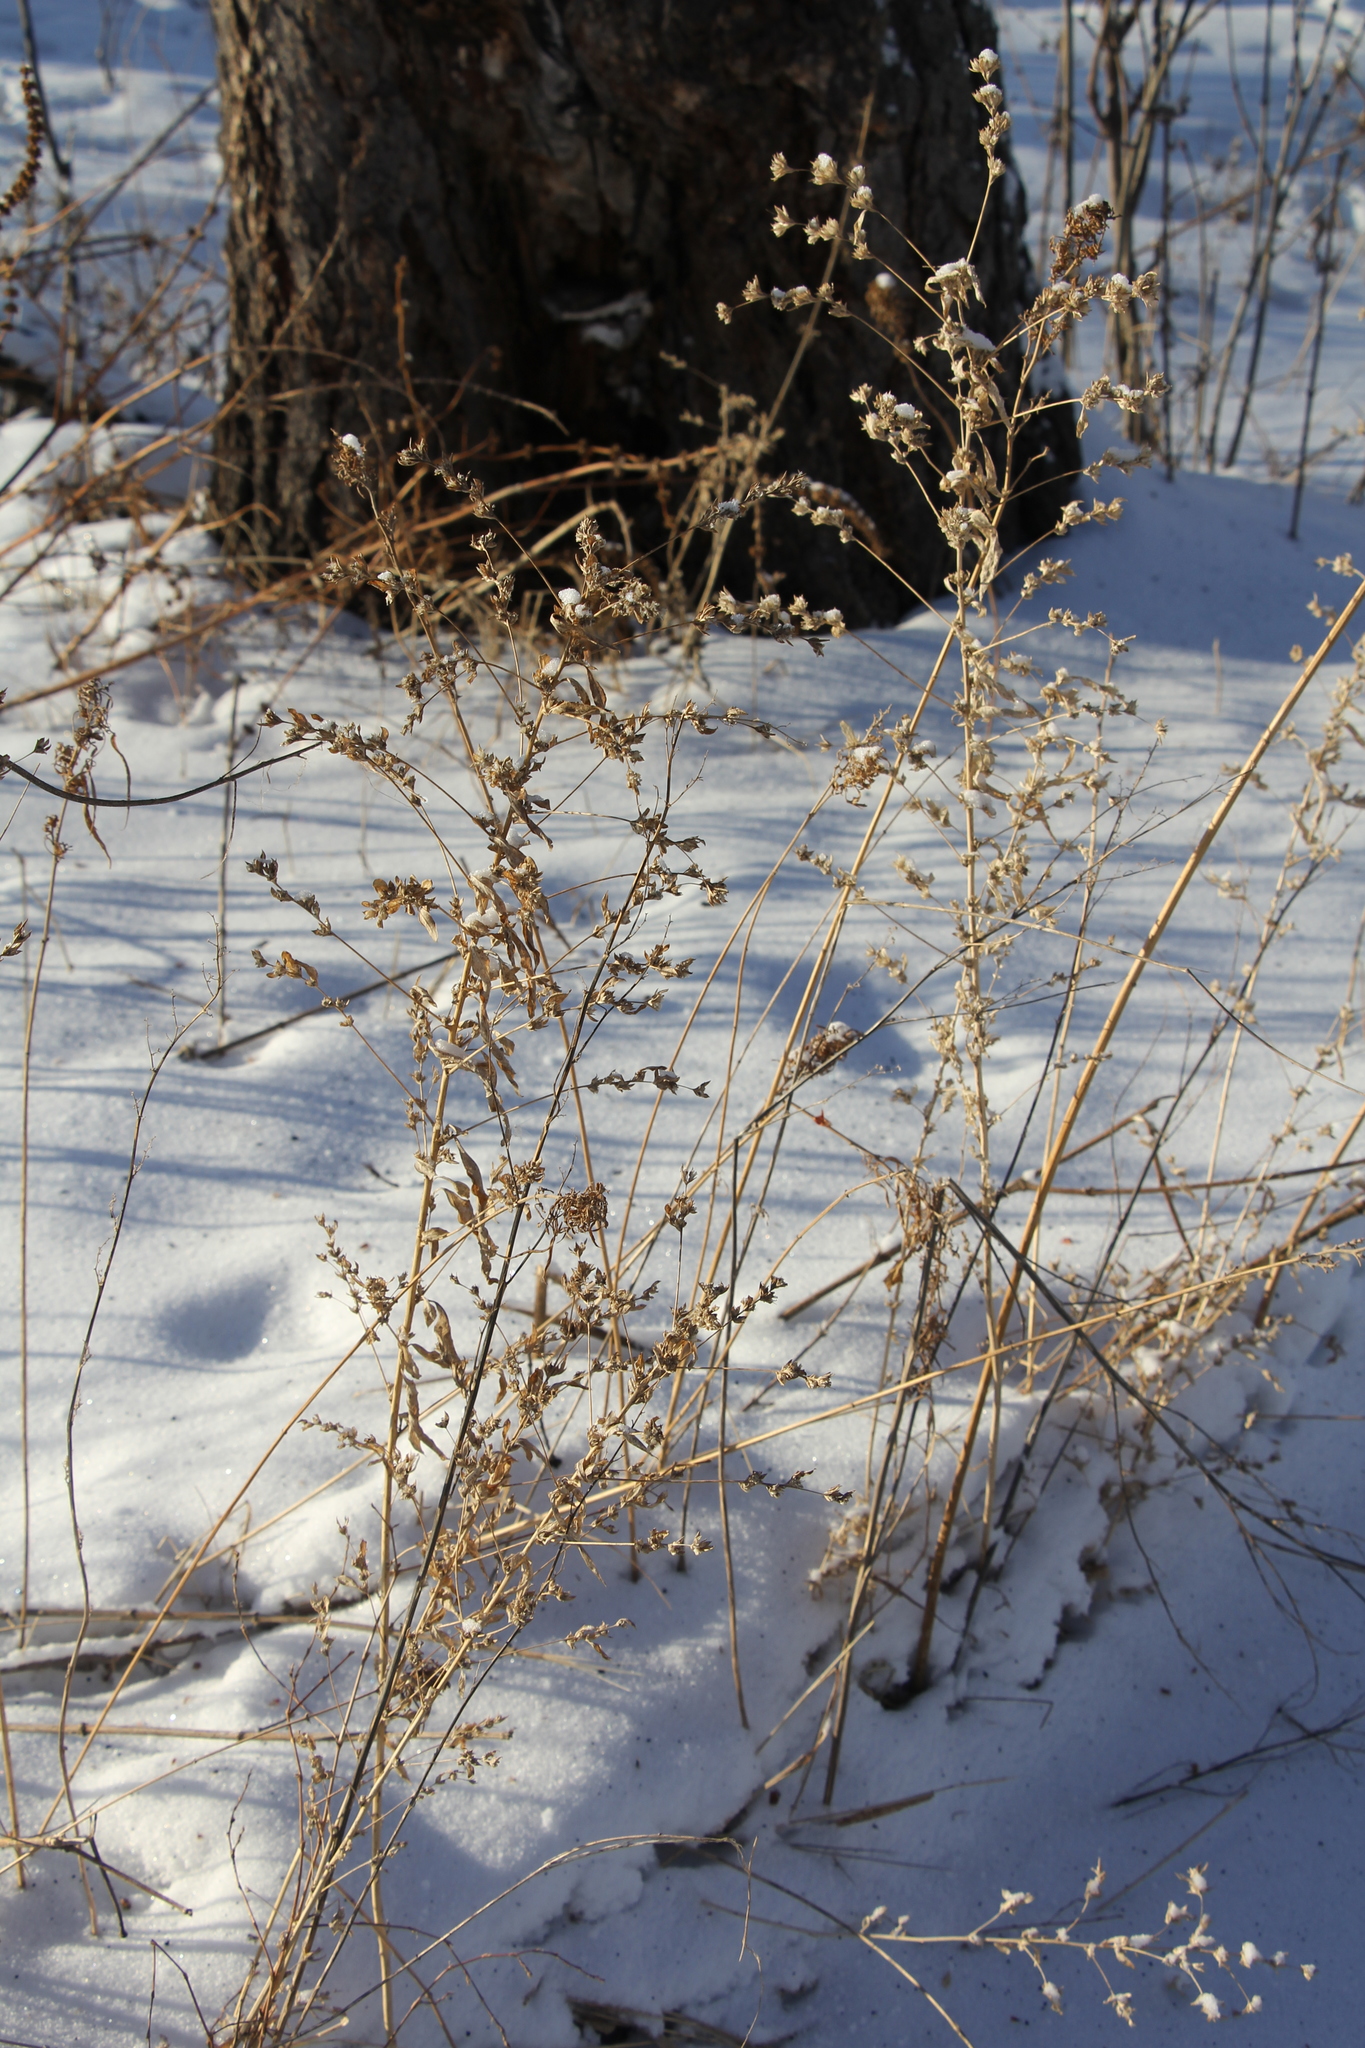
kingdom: Plantae
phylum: Tracheophyta
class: Magnoliopsida
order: Caryophyllales
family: Amaranthaceae
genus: Axyris
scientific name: Axyris amaranthoides
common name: Russian pigweed
